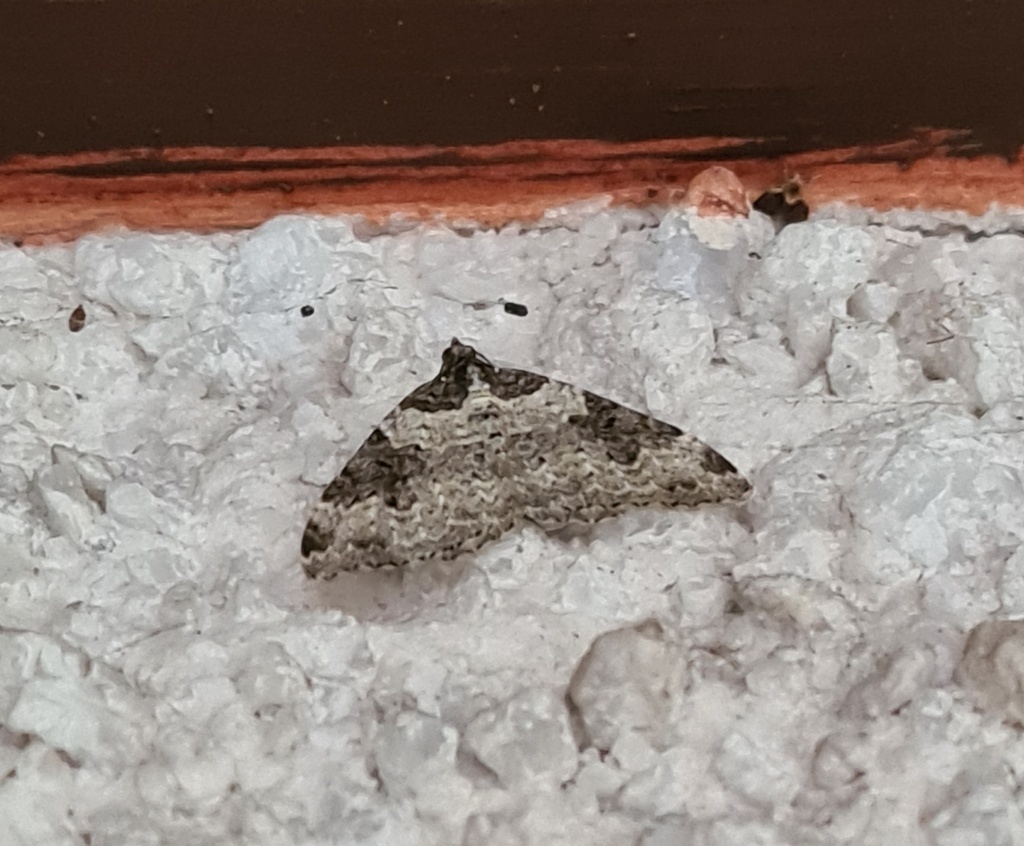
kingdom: Animalia
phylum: Arthropoda
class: Insecta
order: Lepidoptera
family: Geometridae
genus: Xanthorhoe
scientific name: Xanthorhoe fluctuata
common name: Garden carpet
